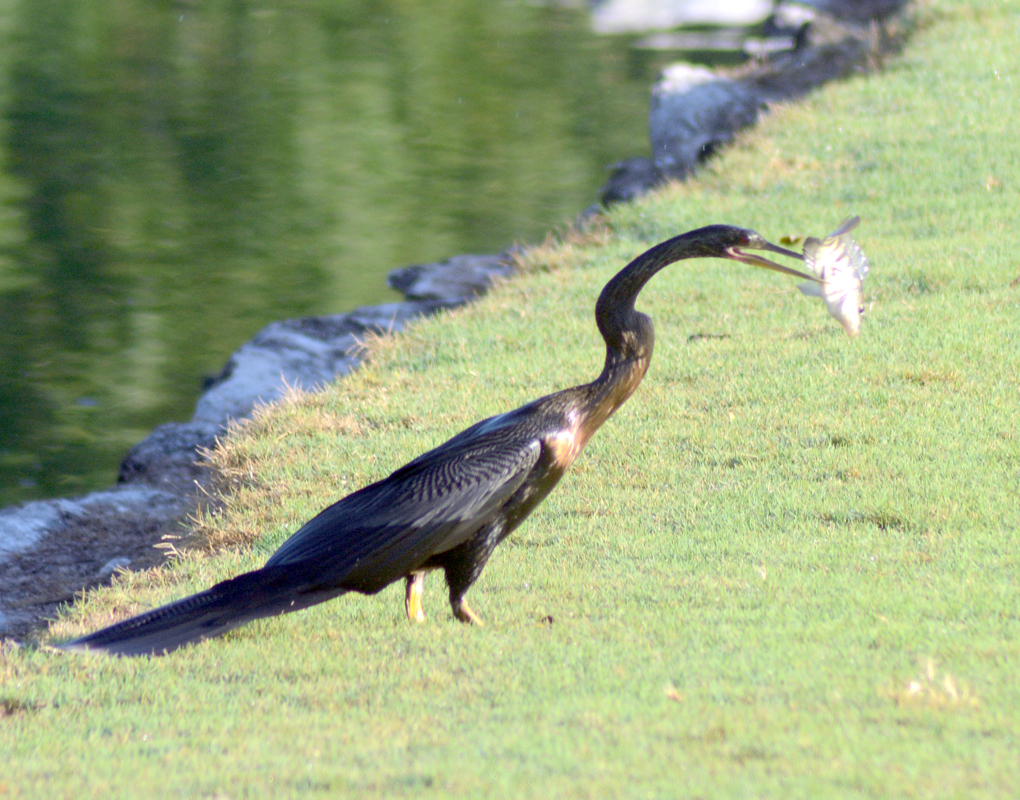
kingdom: Animalia
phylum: Chordata
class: Aves
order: Suliformes
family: Anhingidae
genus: Anhinga
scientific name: Anhinga anhinga
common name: Anhinga
